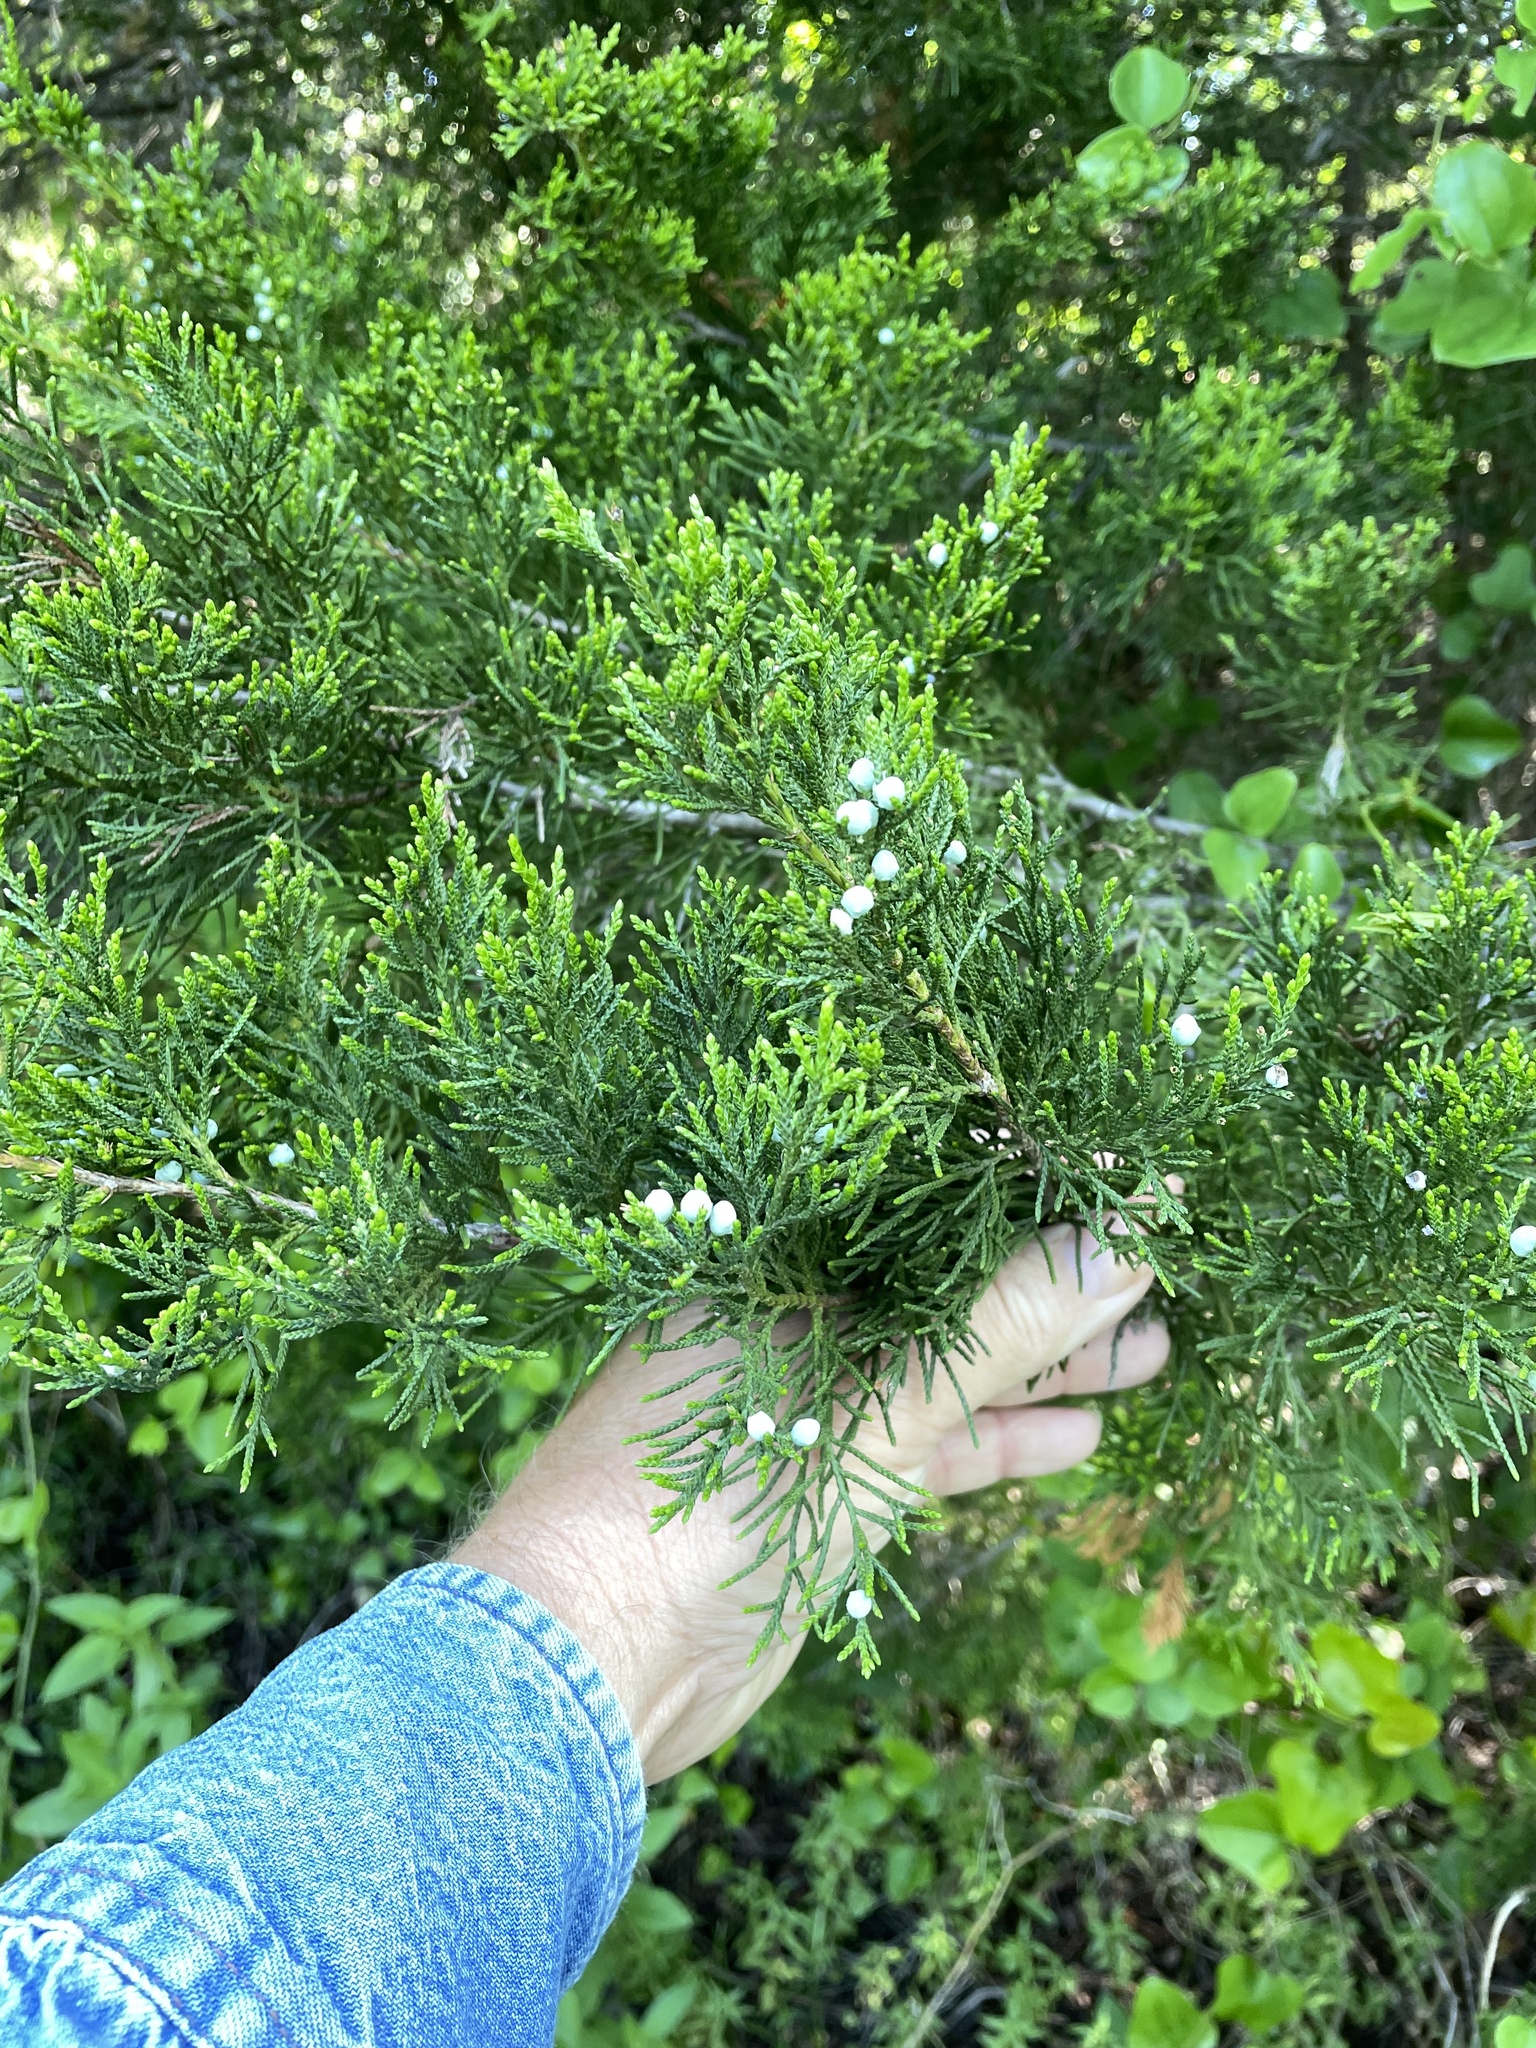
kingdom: Plantae
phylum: Tracheophyta
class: Pinopsida
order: Pinales
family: Cupressaceae
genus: Juniperus
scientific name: Juniperus virginiana
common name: Red juniper
